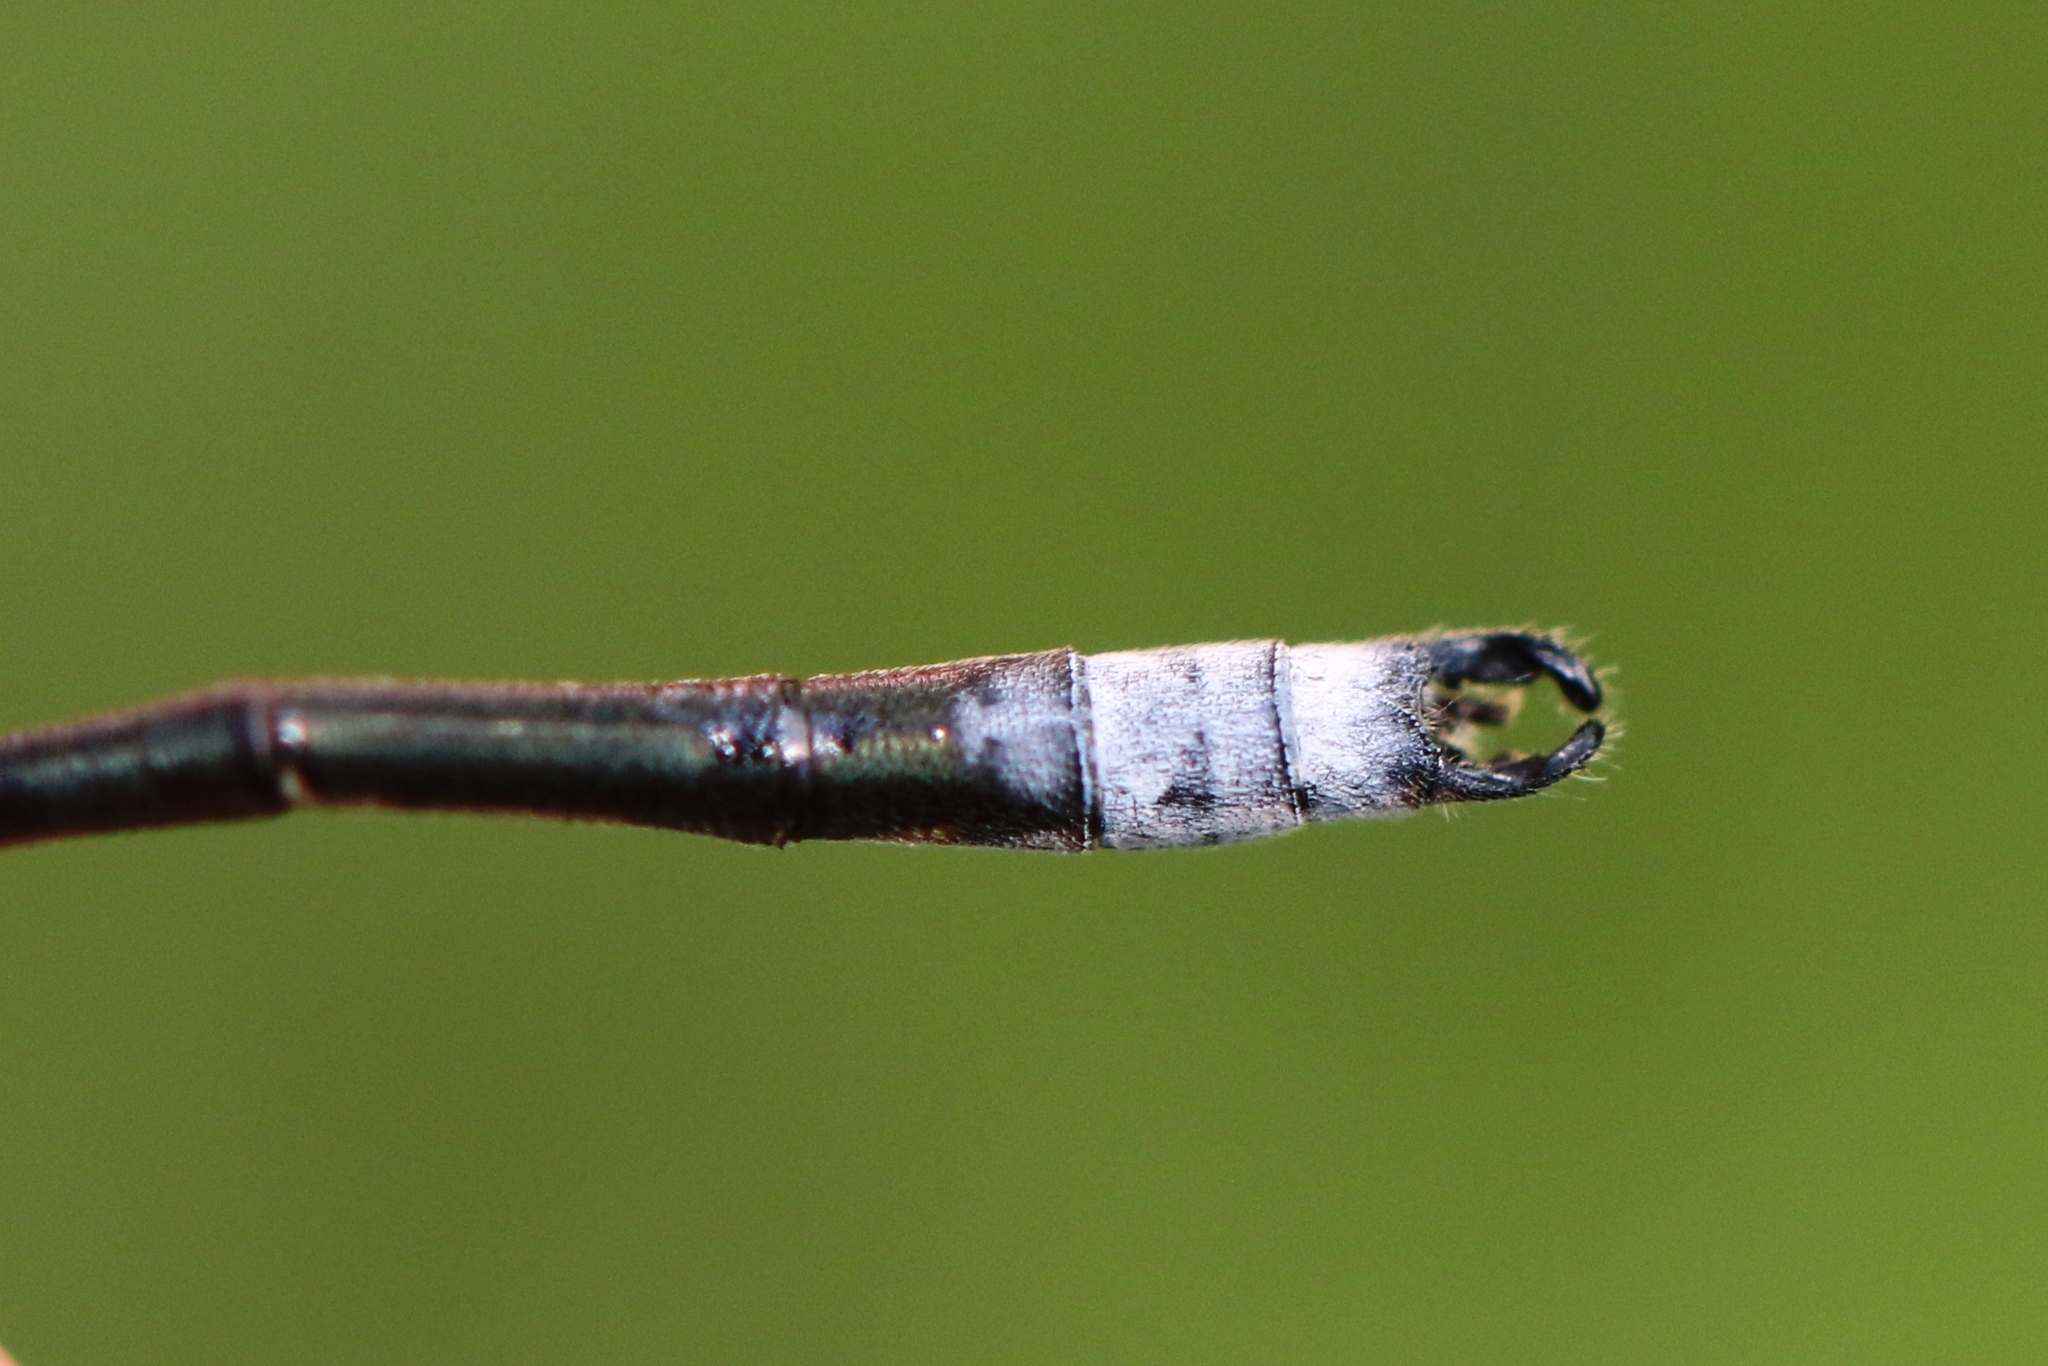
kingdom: Animalia
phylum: Arthropoda
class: Insecta
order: Odonata
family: Lestidae
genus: Lestes
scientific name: Lestes congener
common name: Spotted spreadwing
